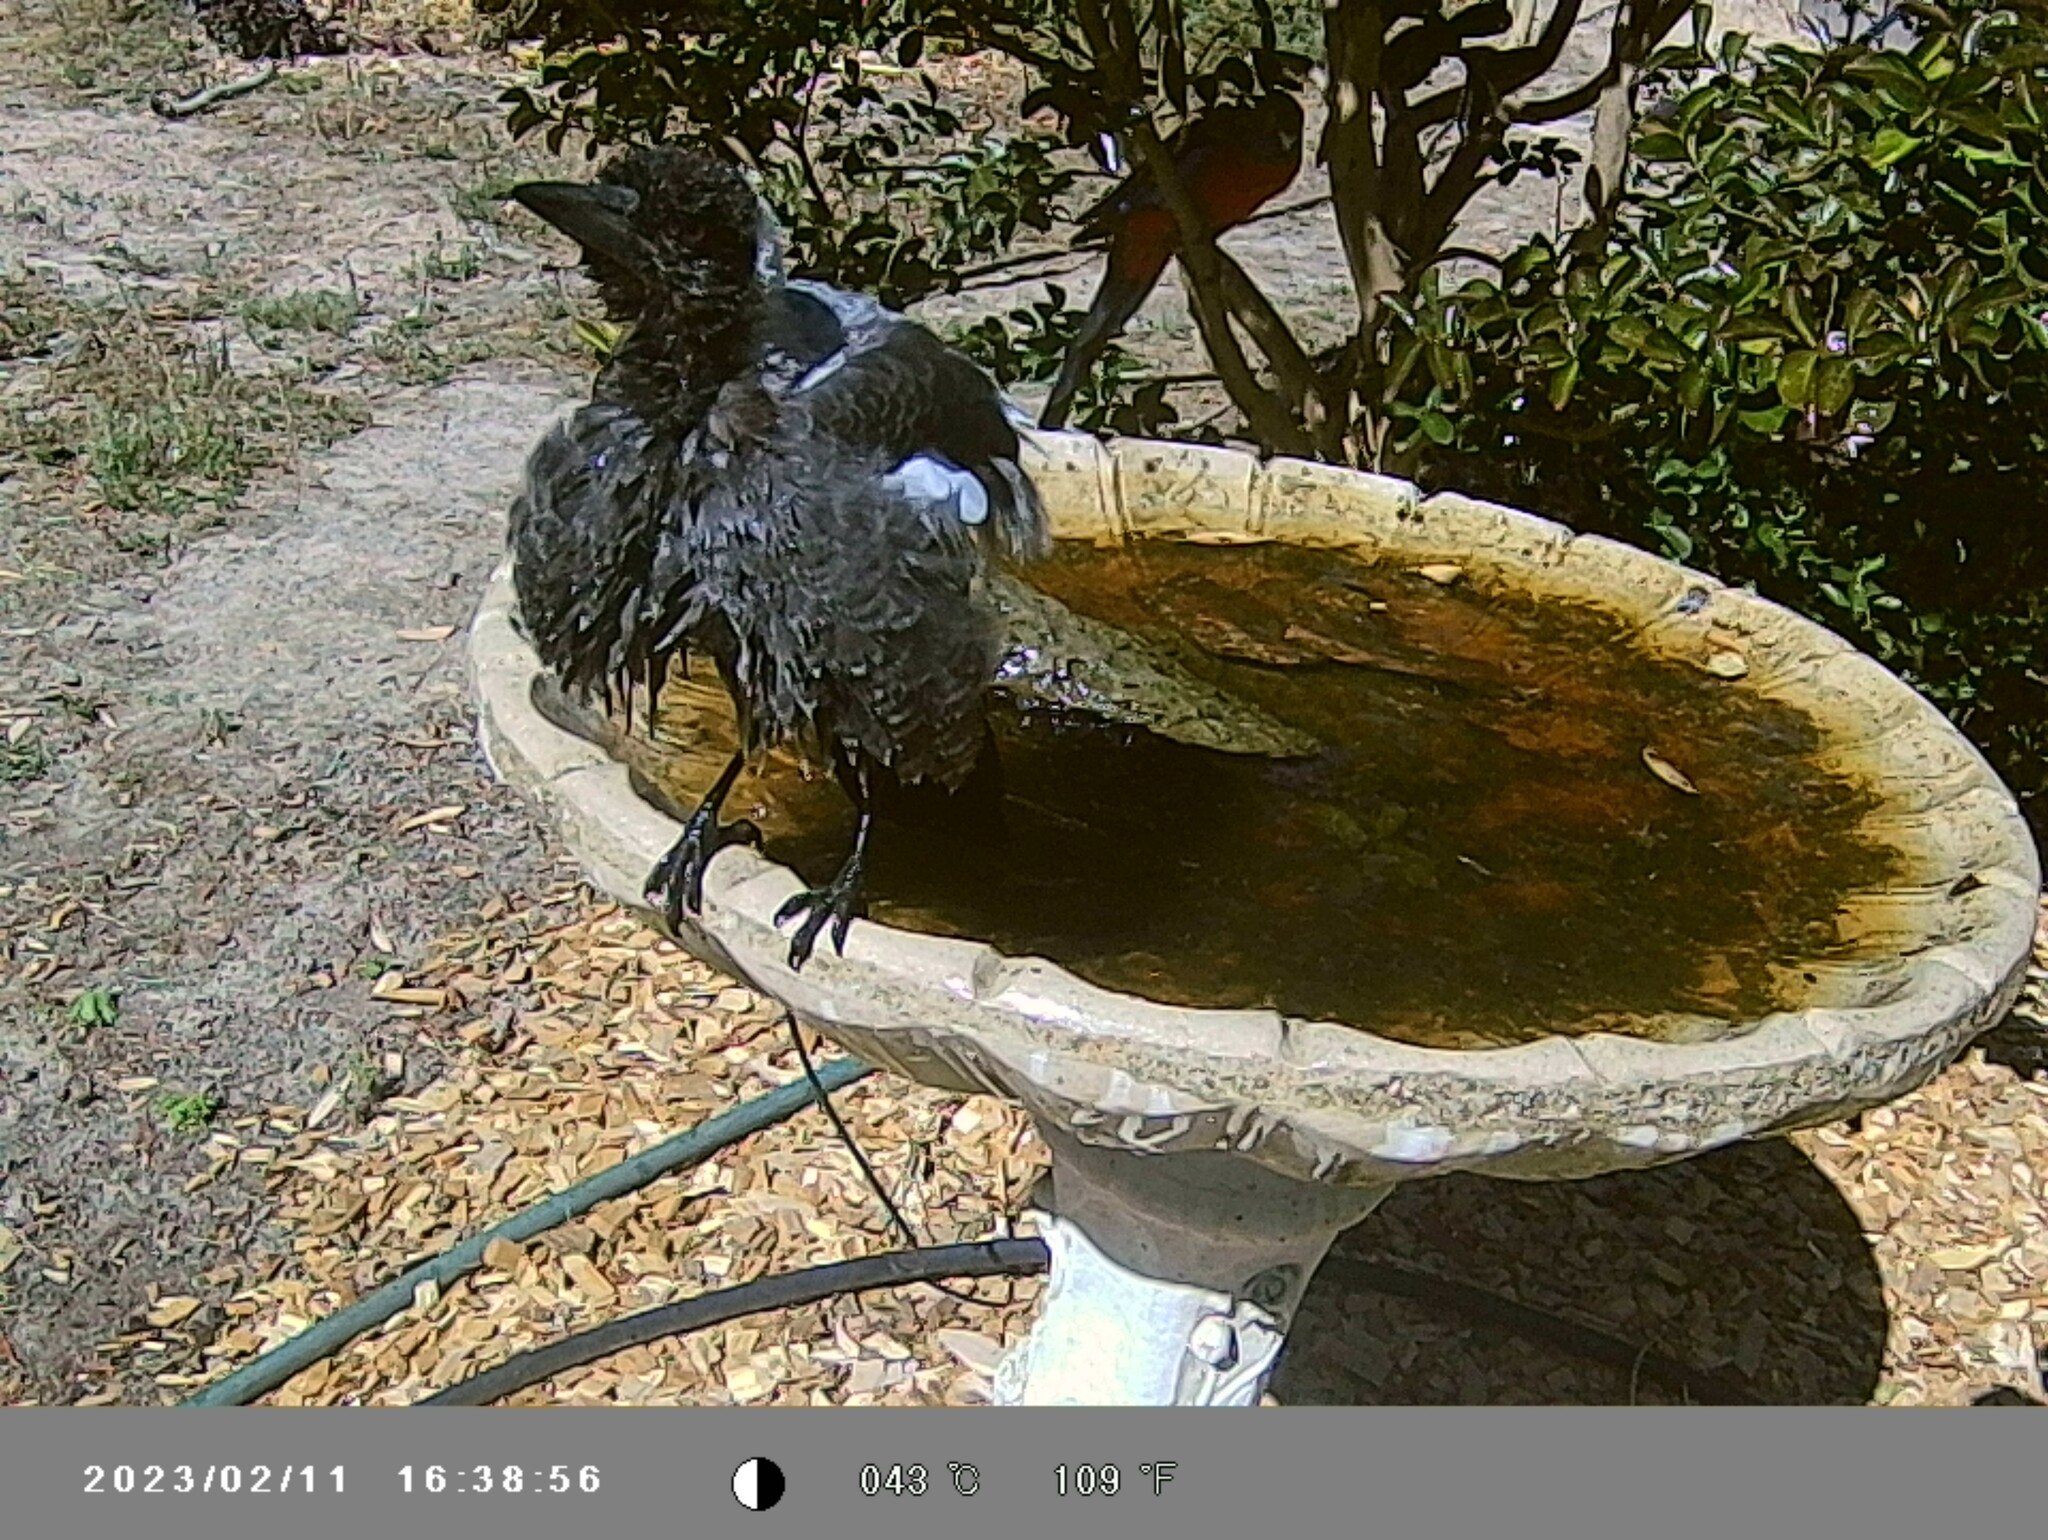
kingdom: Animalia
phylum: Chordata
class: Aves
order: Passeriformes
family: Cracticidae
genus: Gymnorhina
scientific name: Gymnorhina tibicen
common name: Australian magpie
